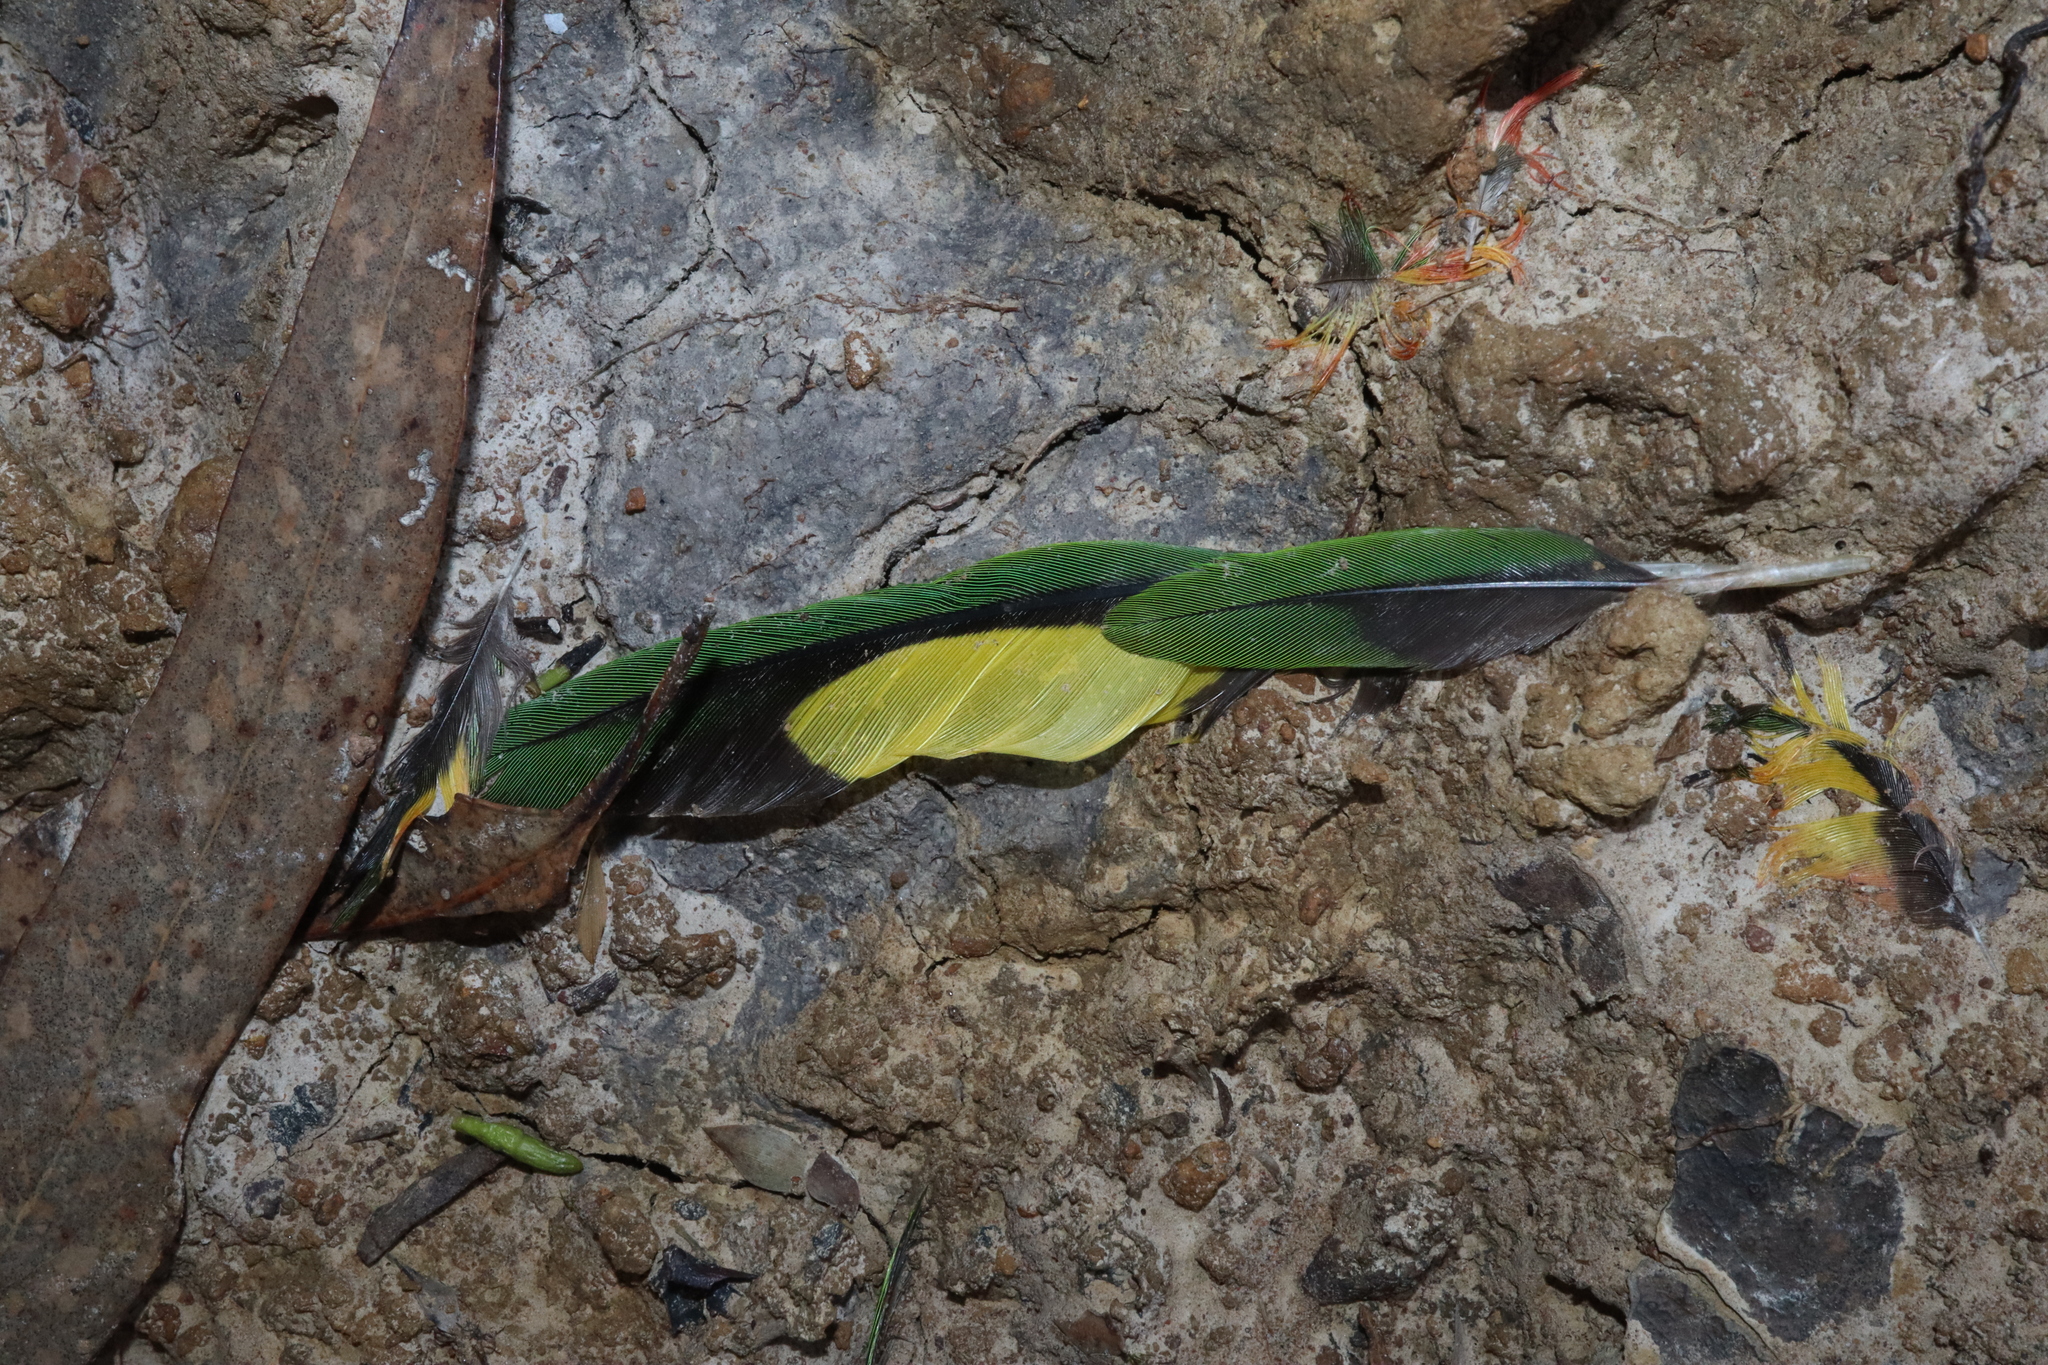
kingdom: Animalia
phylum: Chordata
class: Aves
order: Psittaciformes
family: Psittacidae
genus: Trichoglossus
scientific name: Trichoglossus haematodus
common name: Coconut lorikeet
